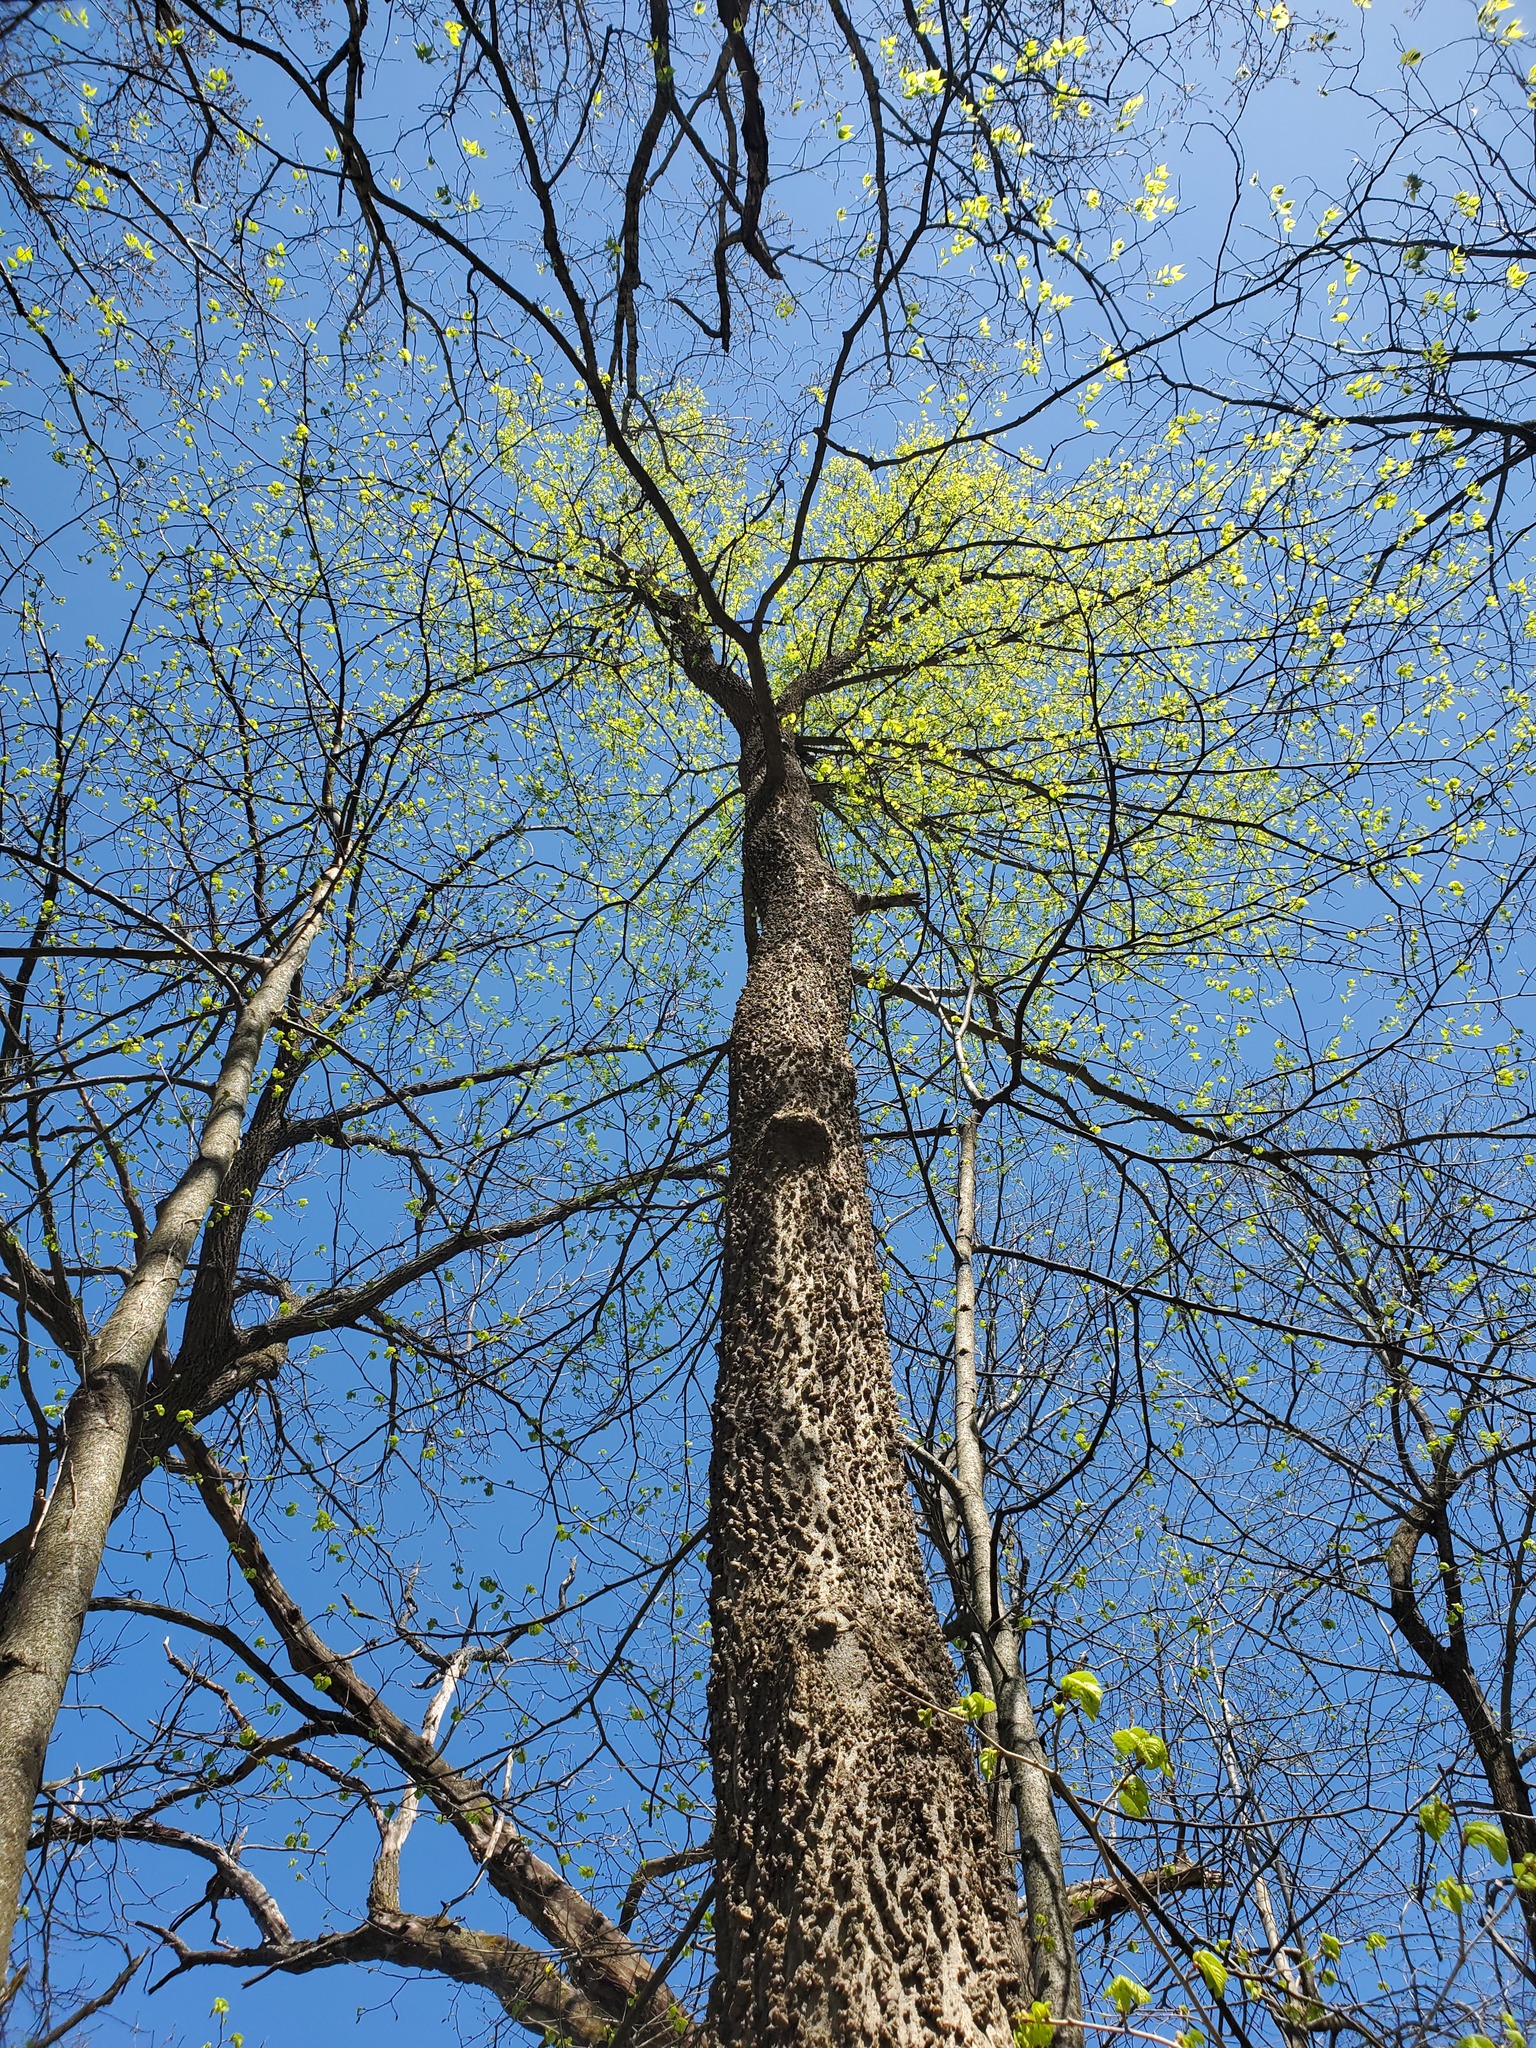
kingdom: Plantae
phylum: Tracheophyta
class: Magnoliopsida
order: Rosales
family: Cannabaceae
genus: Celtis
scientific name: Celtis occidentalis
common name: Common hackberry
